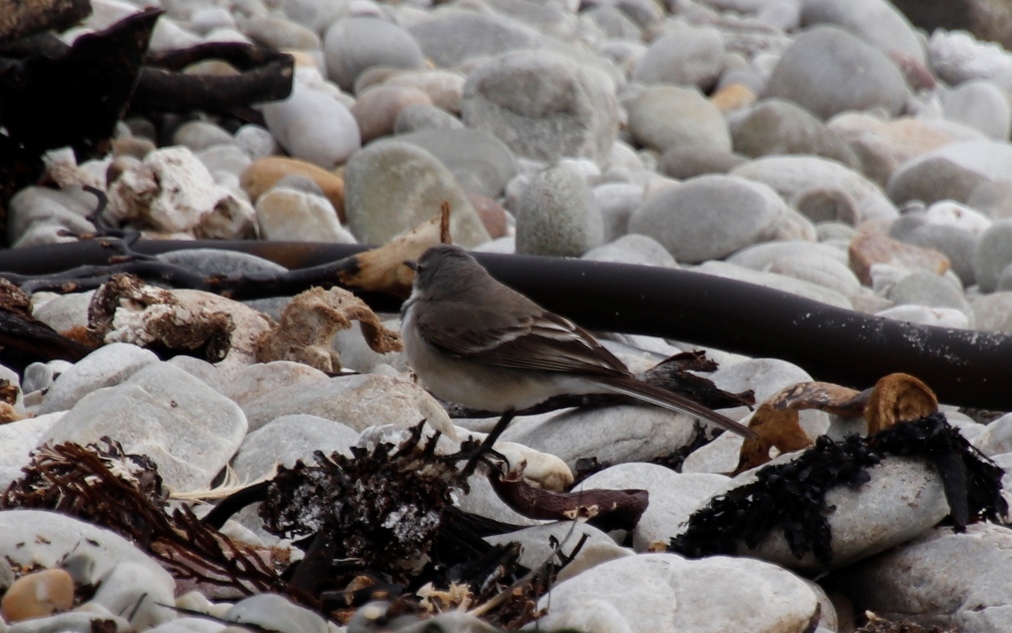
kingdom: Animalia
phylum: Chordata
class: Aves
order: Passeriformes
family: Motacillidae
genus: Motacilla
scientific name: Motacilla capensis
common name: Cape wagtail
